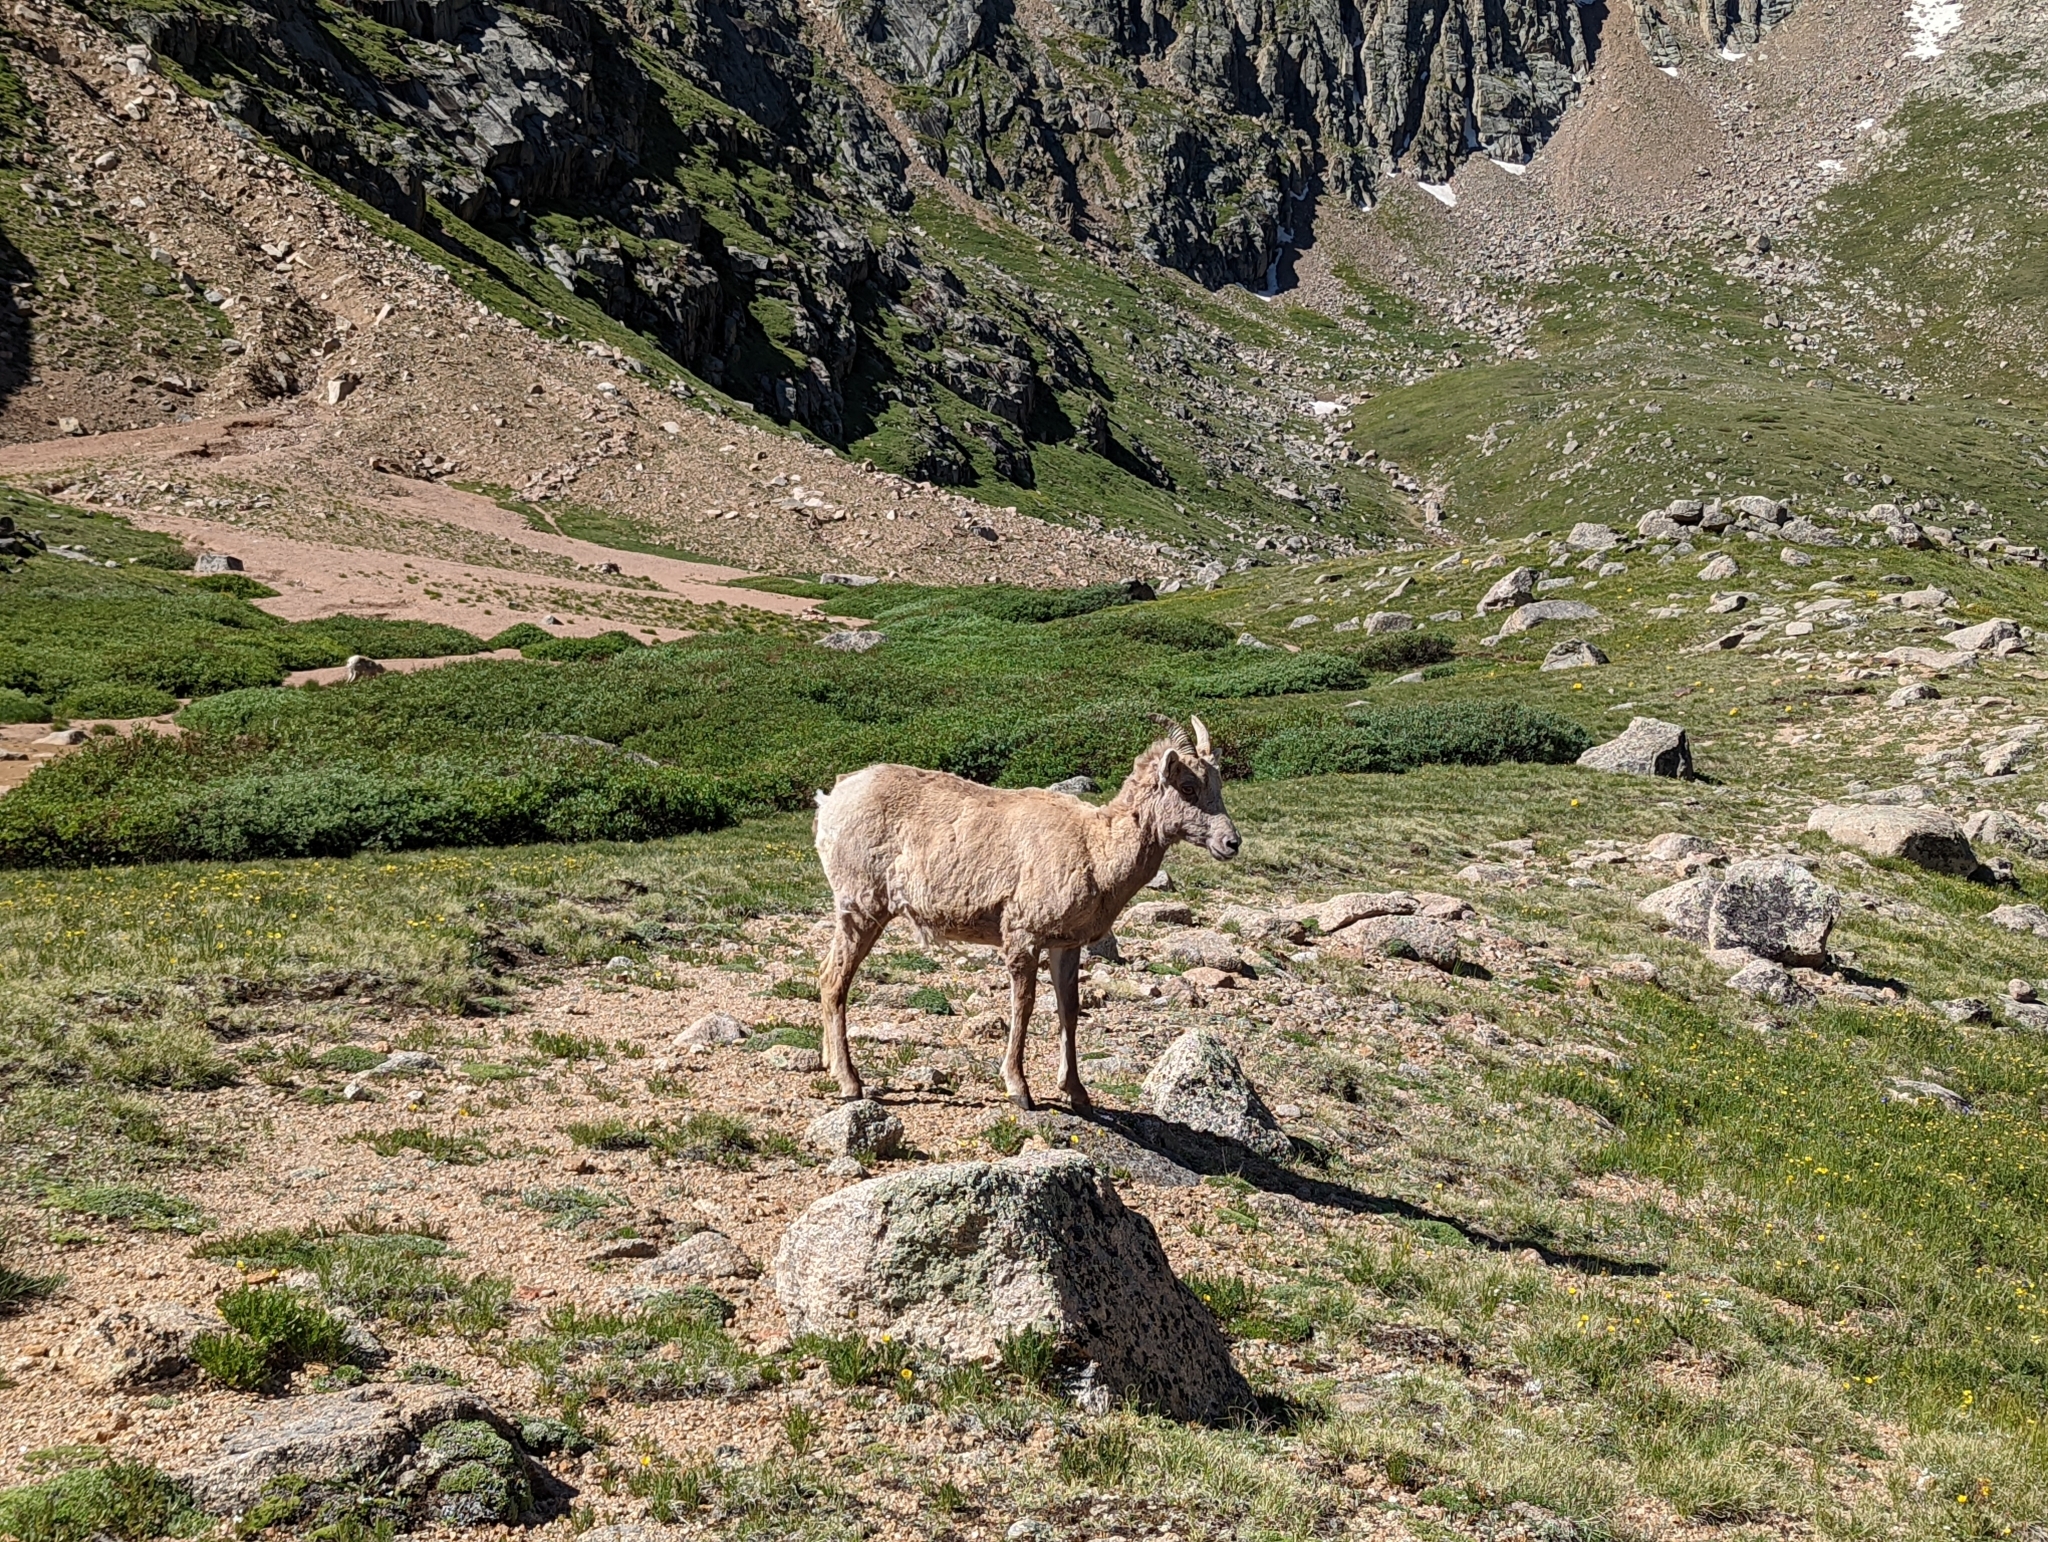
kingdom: Animalia
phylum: Chordata
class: Mammalia
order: Artiodactyla
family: Bovidae
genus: Ovis
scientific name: Ovis canadensis
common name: Bighorn sheep
